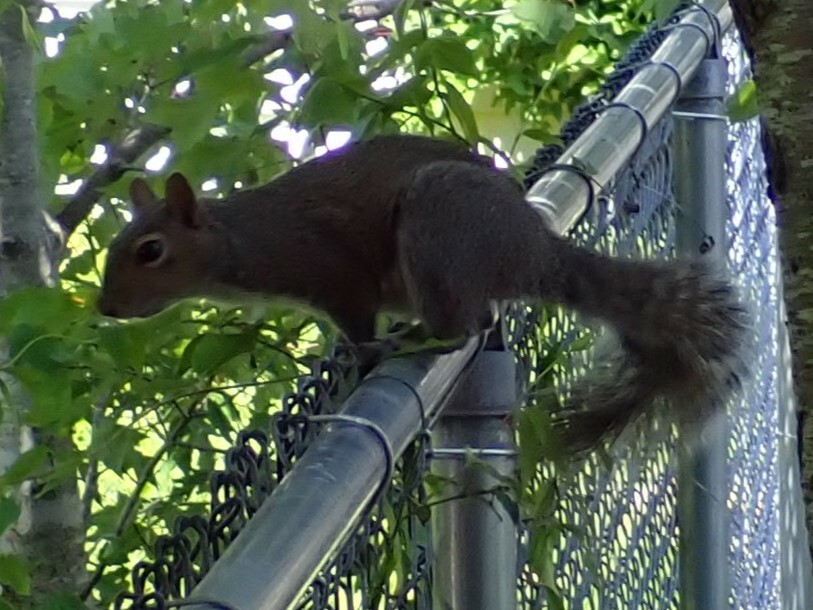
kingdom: Animalia
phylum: Chordata
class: Mammalia
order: Rodentia
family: Sciuridae
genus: Sciurus
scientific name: Sciurus carolinensis
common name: Eastern gray squirrel
